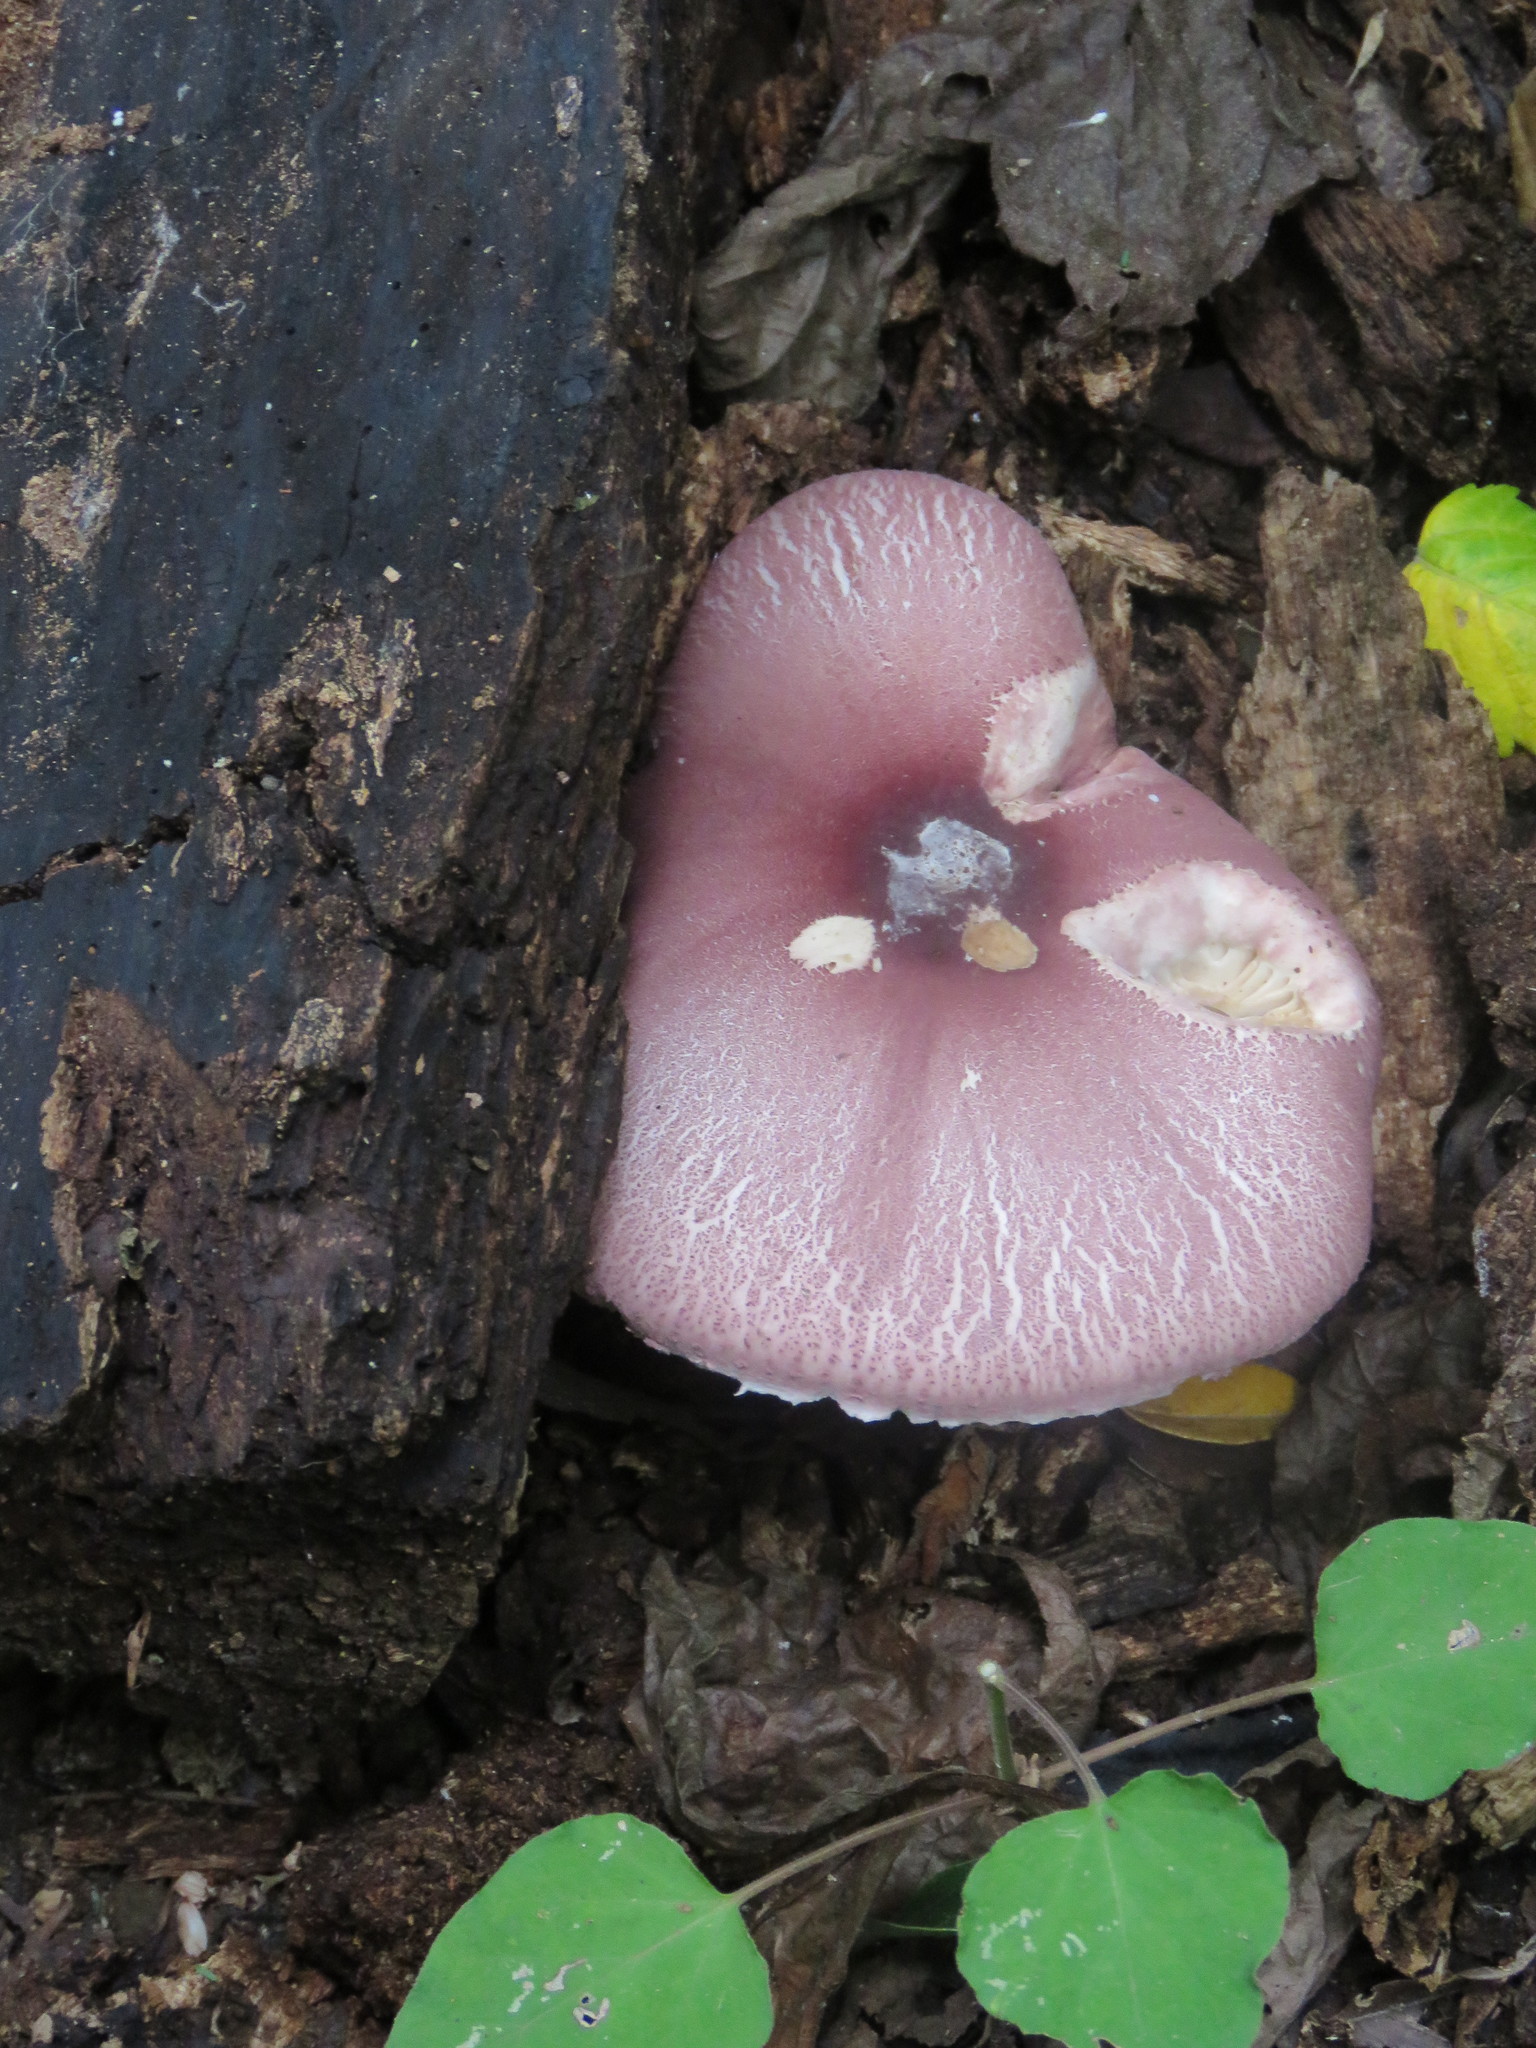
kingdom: Fungi
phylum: Basidiomycota
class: Agaricomycetes
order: Agaricales
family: Agaricaceae
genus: Leucoagaricus
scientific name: Leucoagaricus lilaceus
